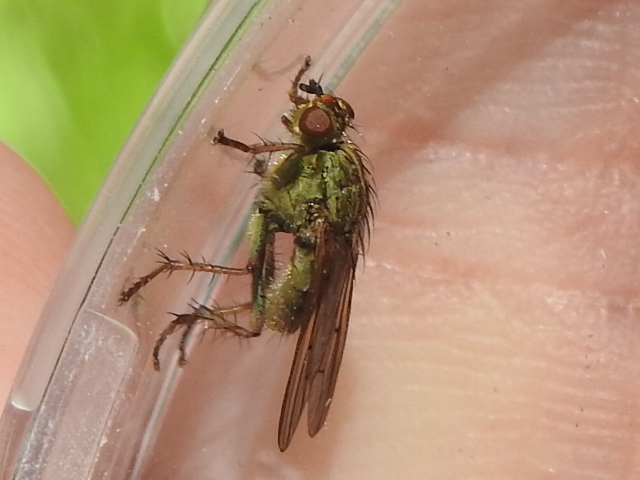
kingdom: Animalia
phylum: Arthropoda
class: Insecta
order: Diptera
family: Scathophagidae
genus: Scathophaga
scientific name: Scathophaga stercoraria
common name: Yellow dung fly
